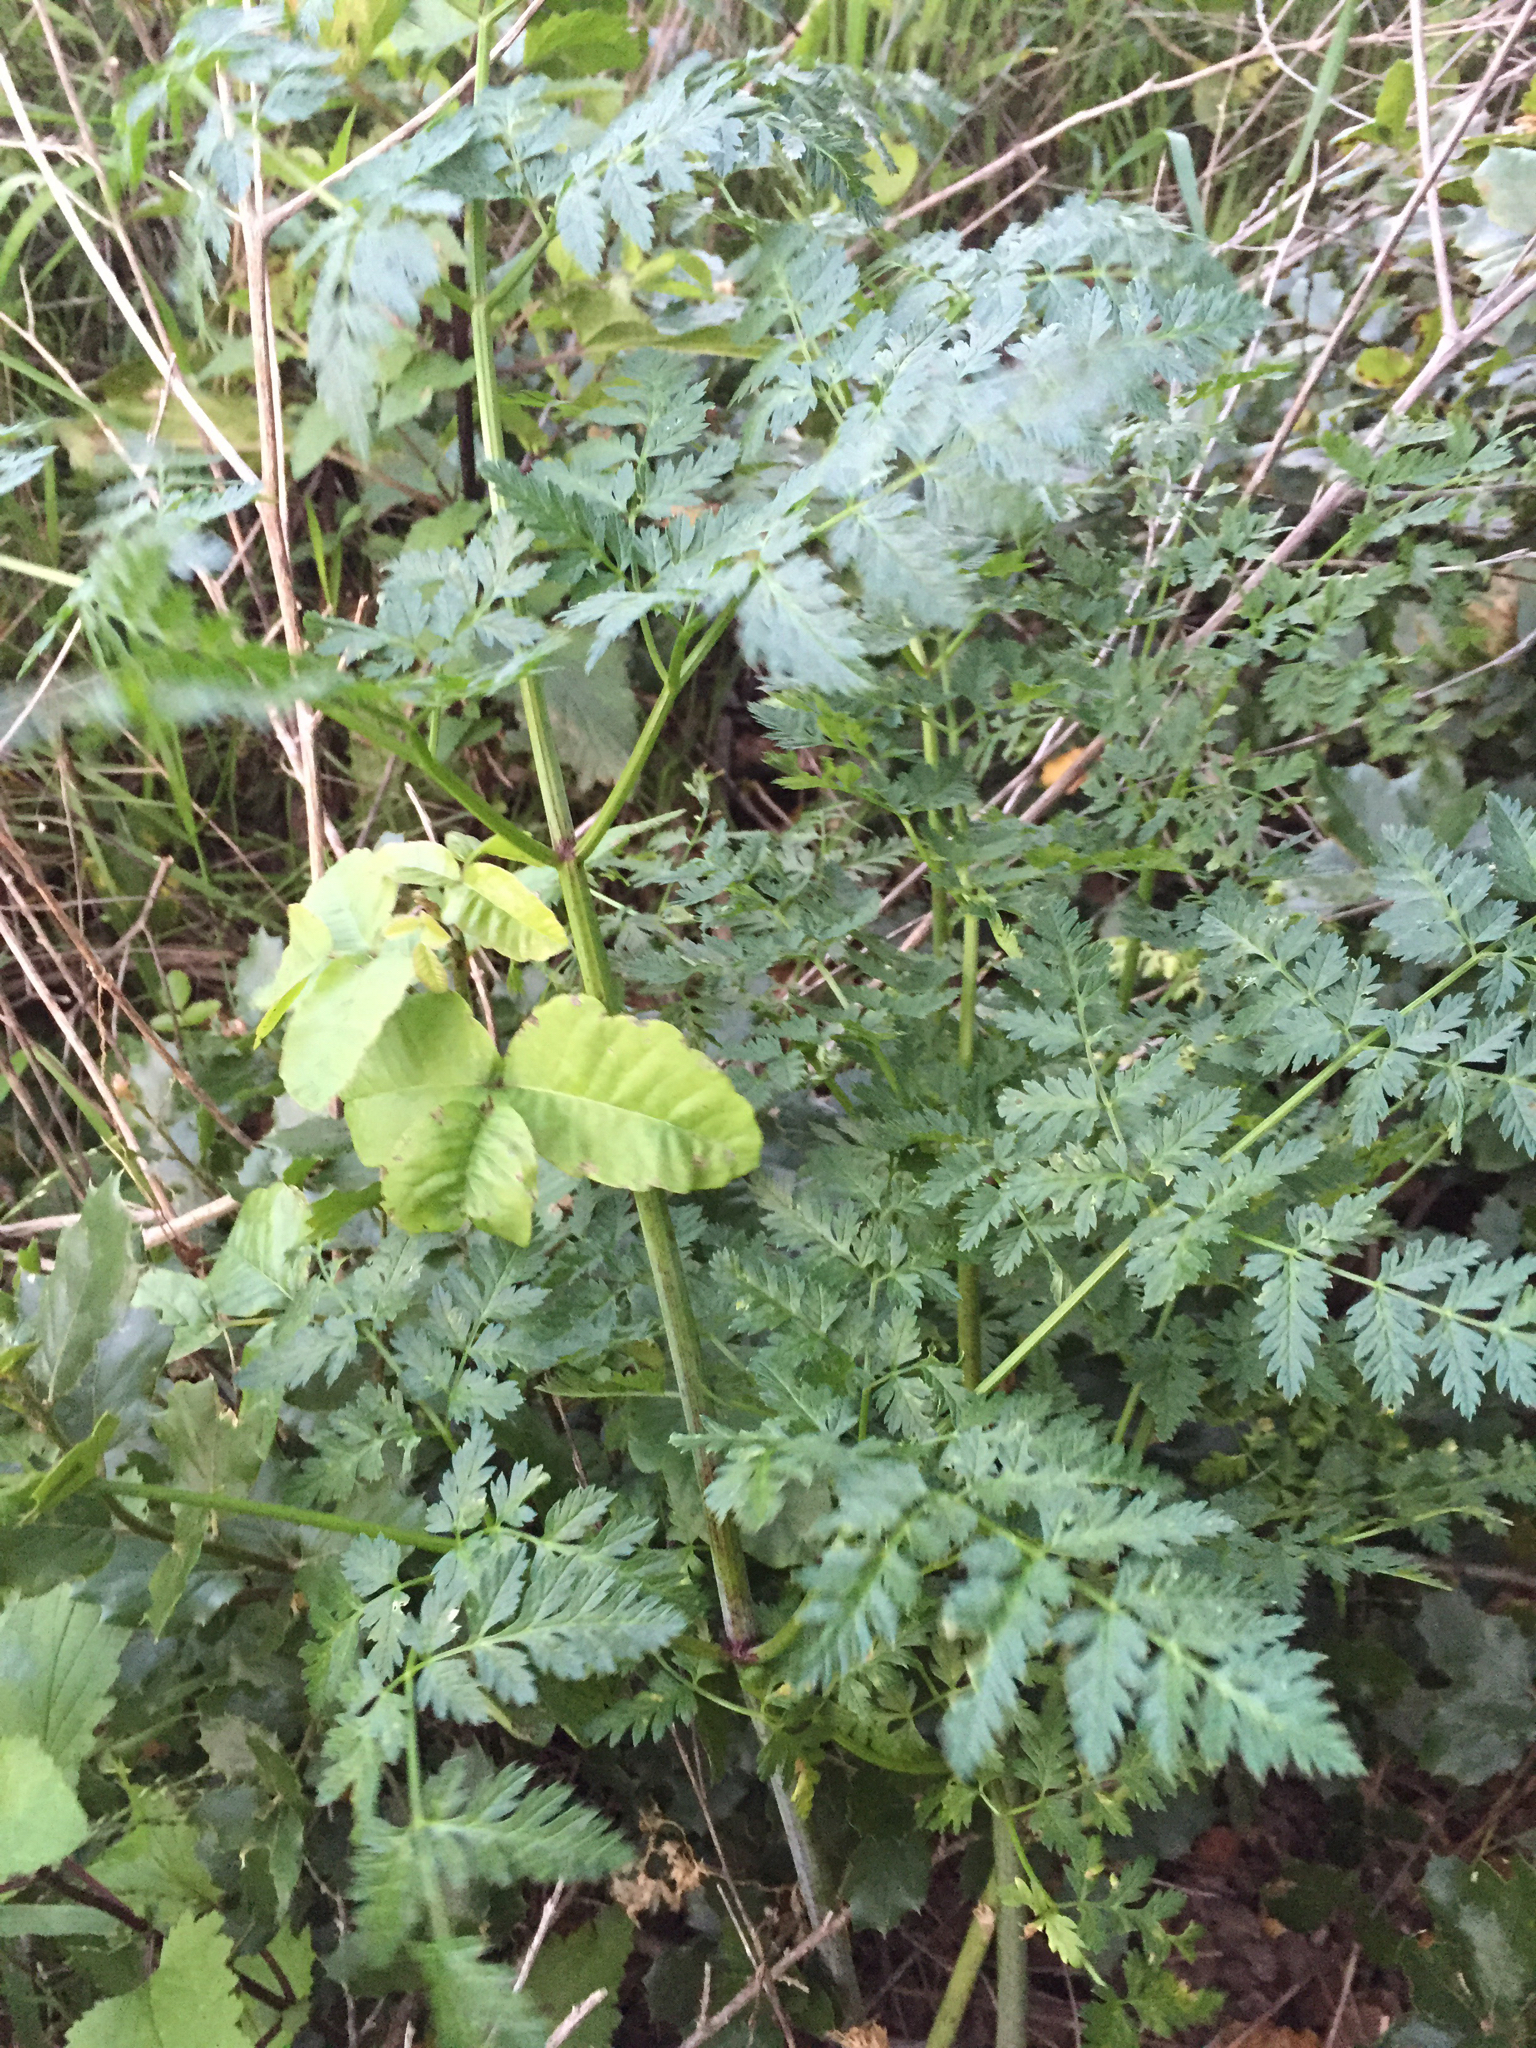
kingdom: Plantae
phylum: Tracheophyta
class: Magnoliopsida
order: Apiales
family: Apiaceae
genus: Conium
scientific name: Conium maculatum
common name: Hemlock
